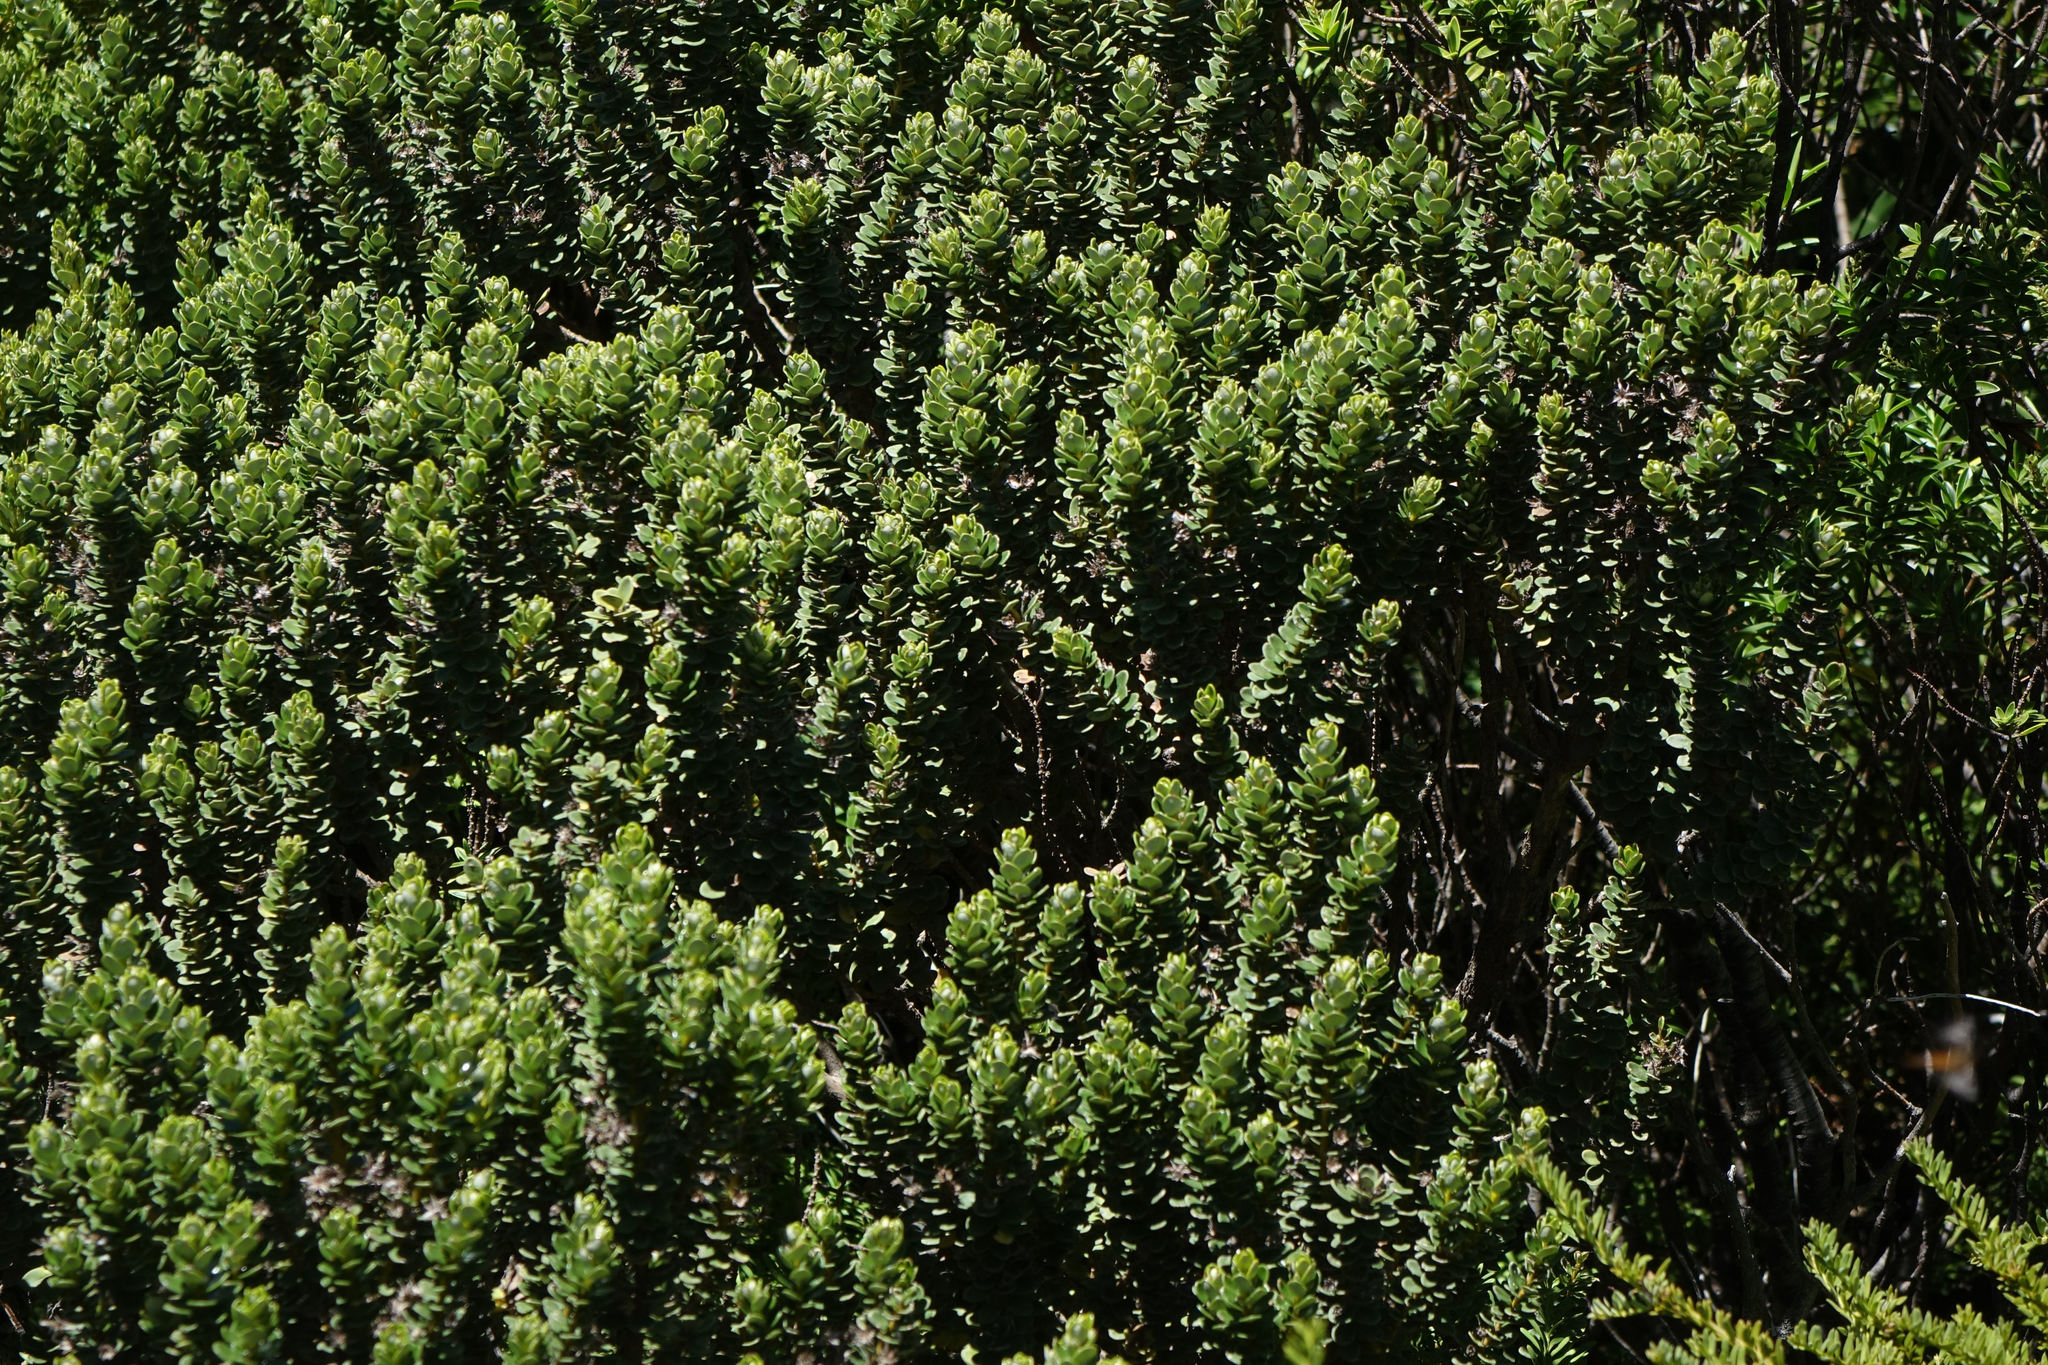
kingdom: Plantae
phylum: Tracheophyta
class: Magnoliopsida
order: Asterales
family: Asteraceae
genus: Olearia
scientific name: Olearia nummularifolia
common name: Sticky daisybush
